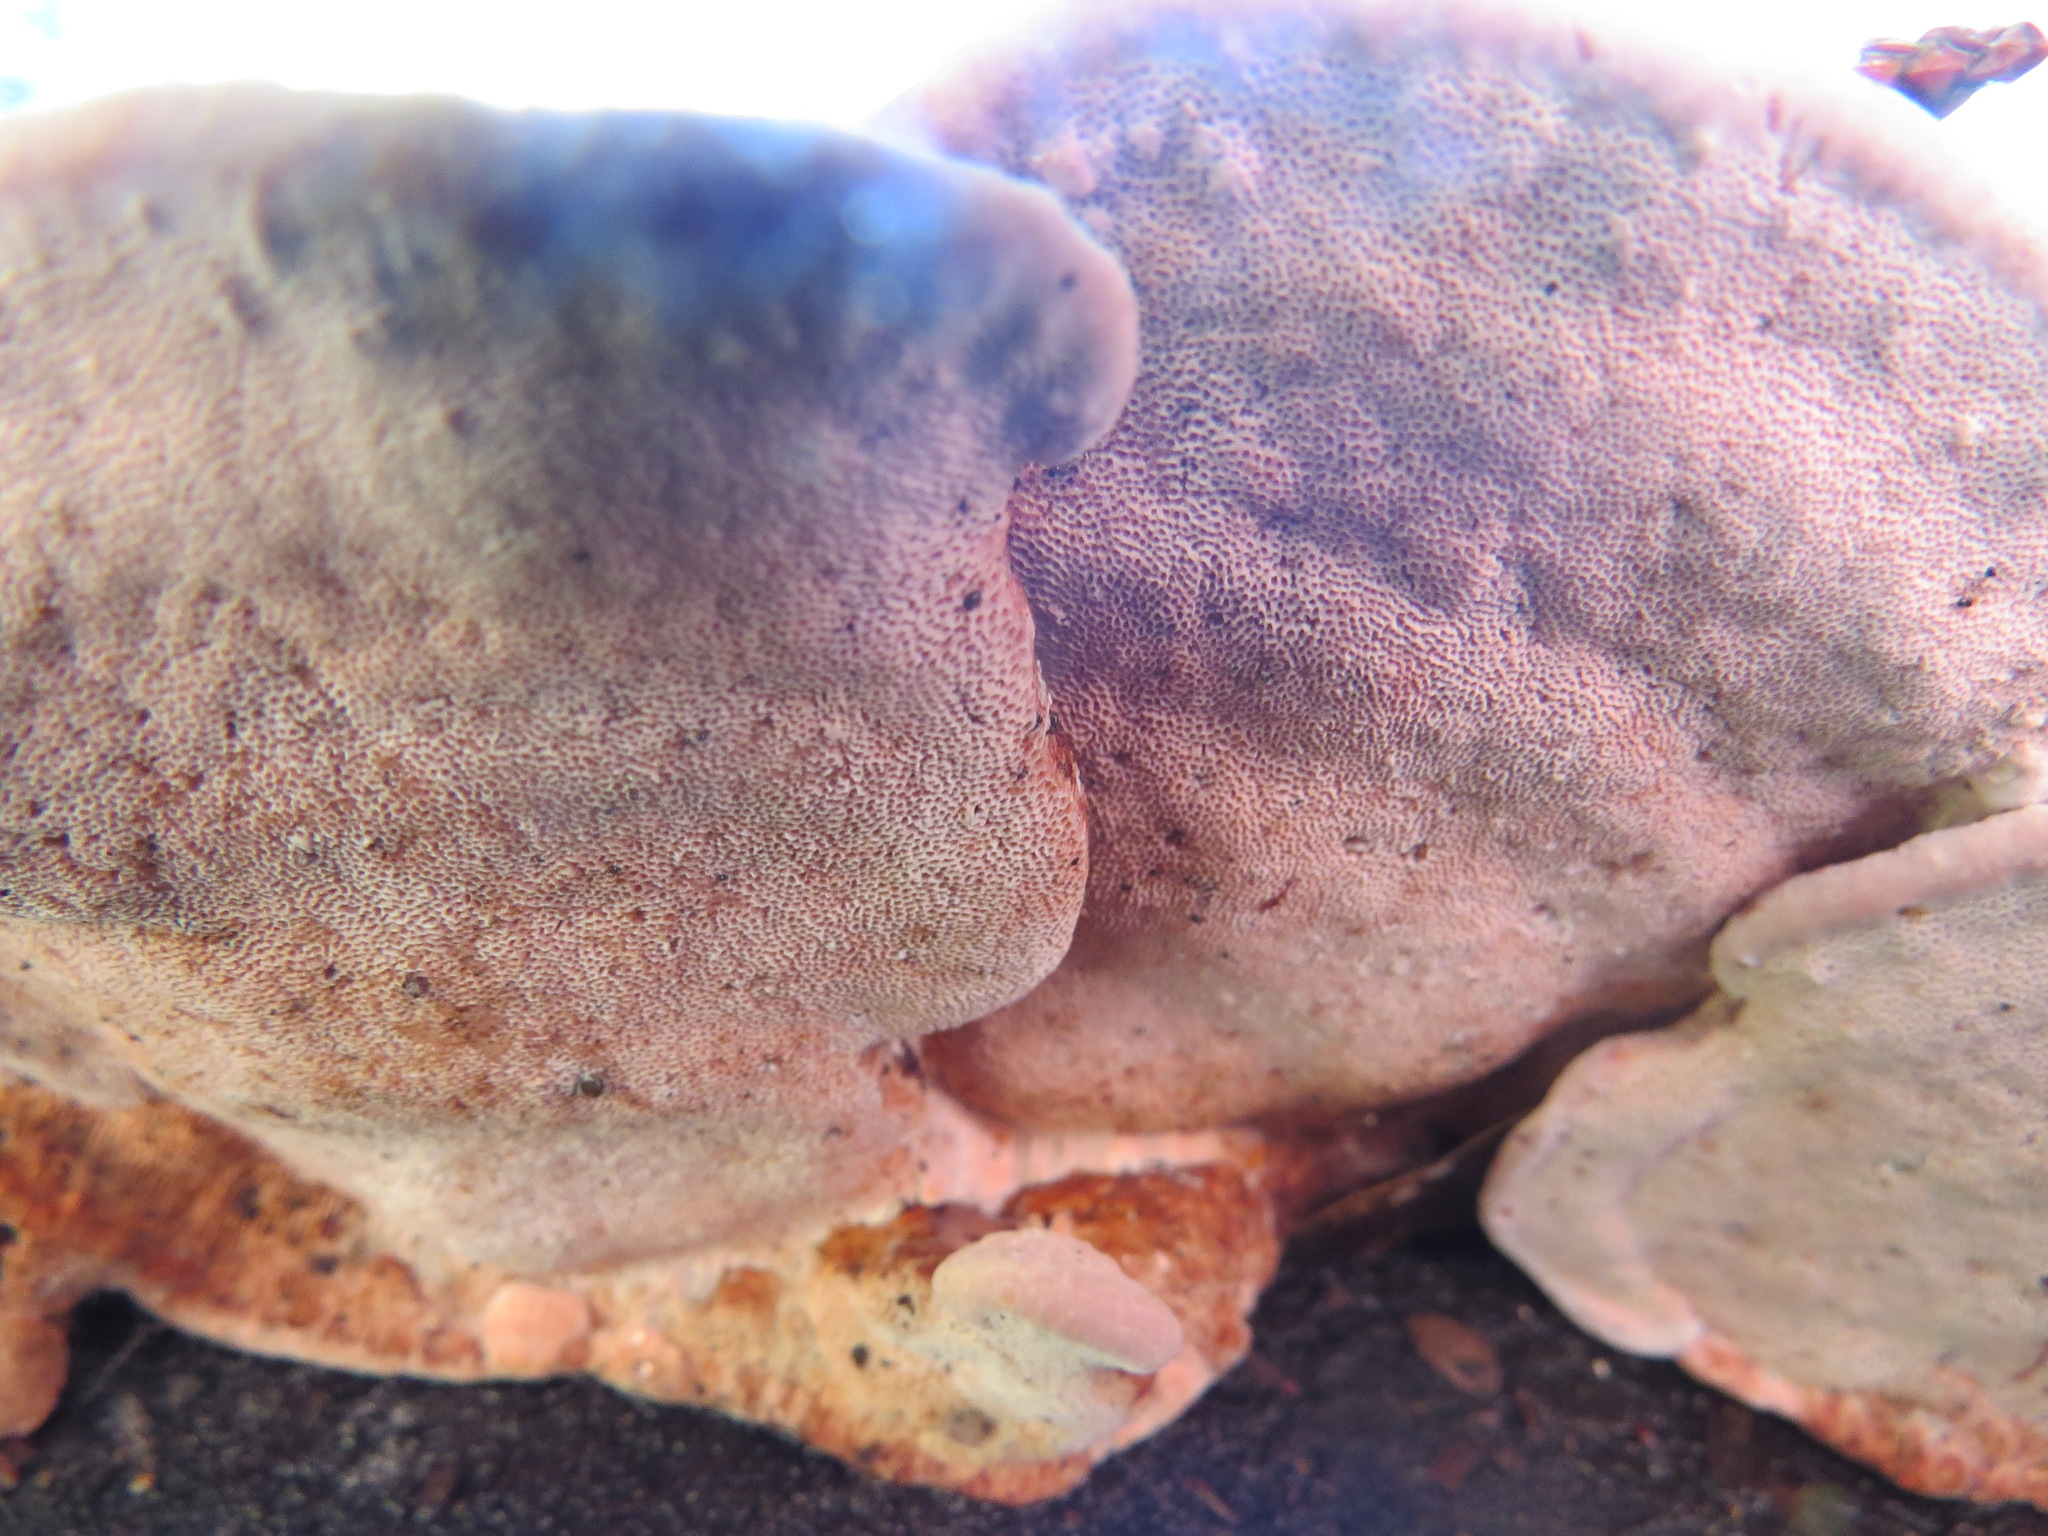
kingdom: Fungi
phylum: Basidiomycota
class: Agaricomycetes
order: Polyporales
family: Fomitopsidaceae
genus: Rhodofomes
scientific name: Rhodofomes cajanderi
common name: Rosy conk
